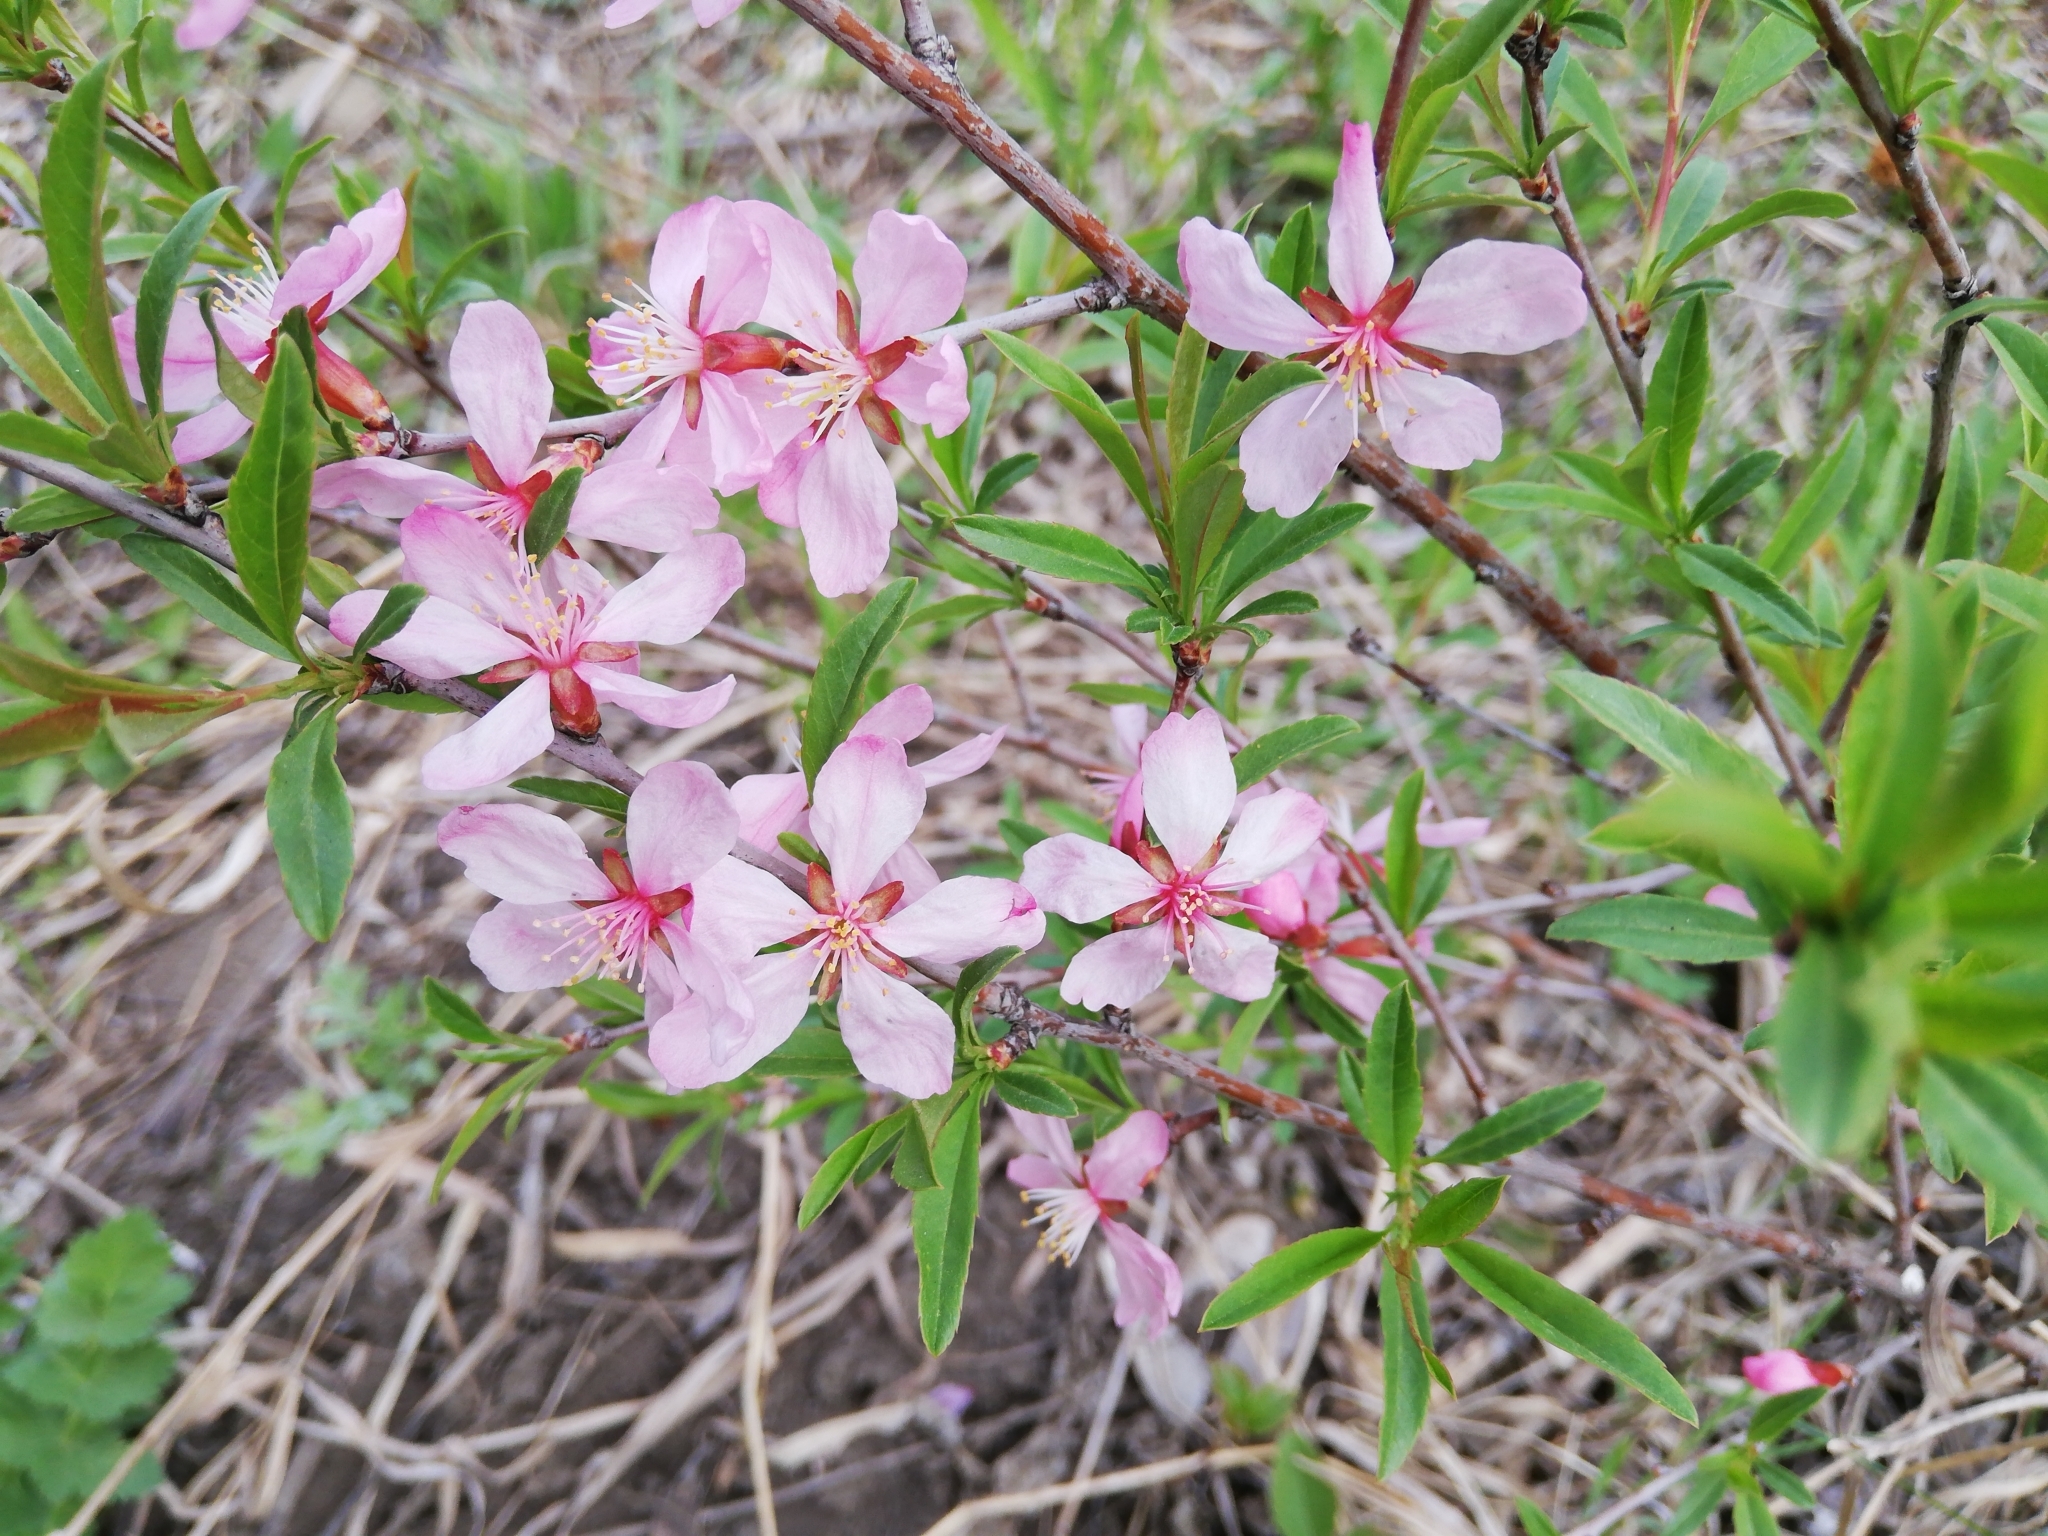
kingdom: Plantae
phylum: Tracheophyta
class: Magnoliopsida
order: Rosales
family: Rosaceae
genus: Prunus
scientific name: Prunus tenella
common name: Dwarf russian almond
